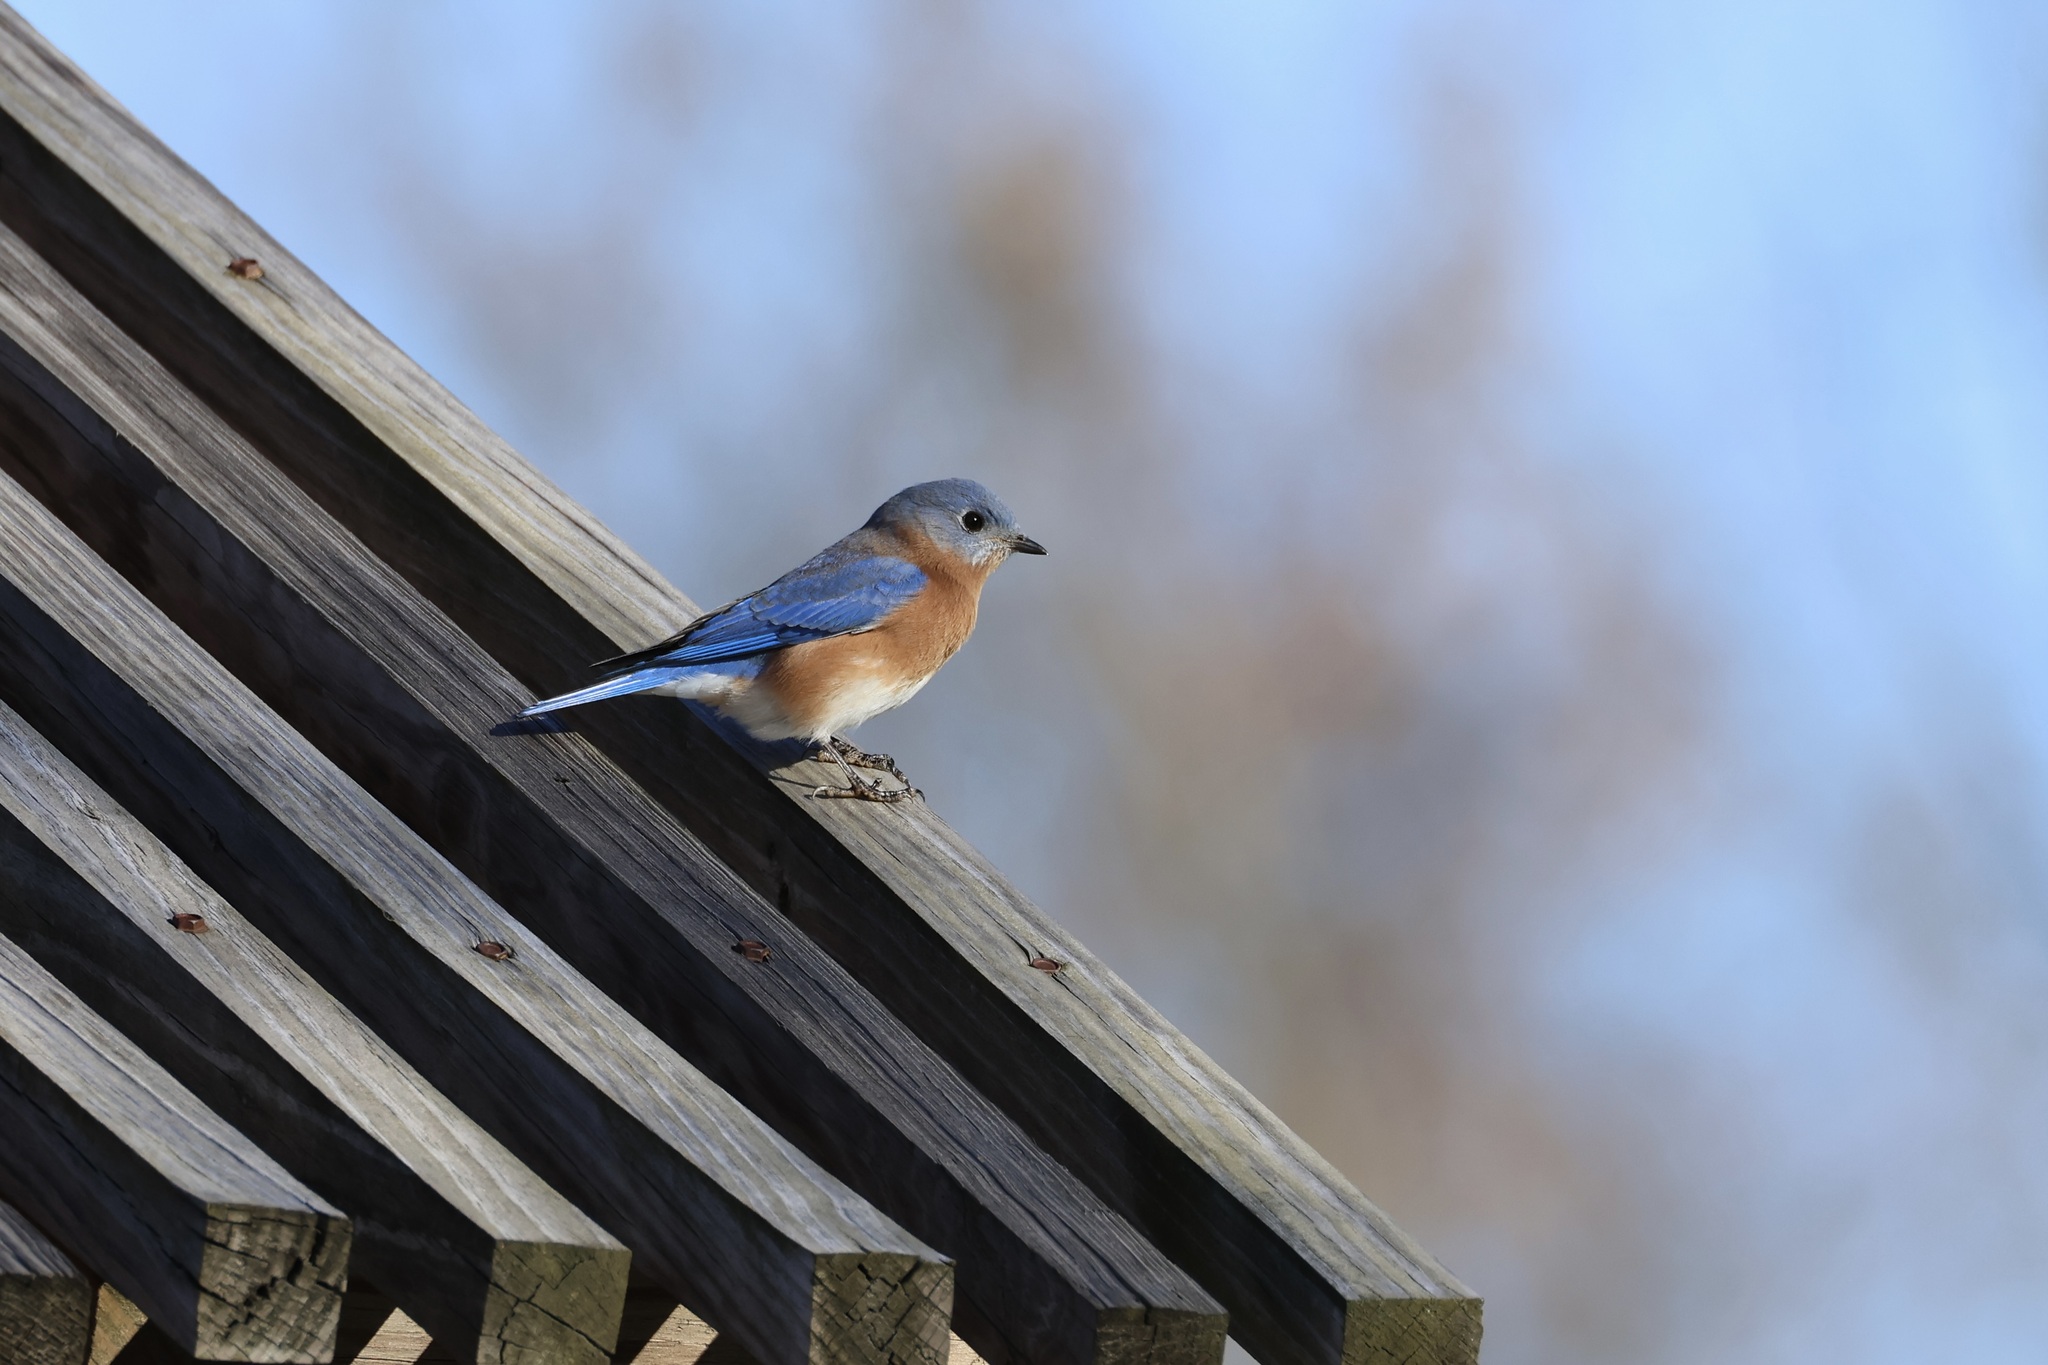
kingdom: Animalia
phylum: Chordata
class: Aves
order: Passeriformes
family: Turdidae
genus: Sialia
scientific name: Sialia sialis
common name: Eastern bluebird
